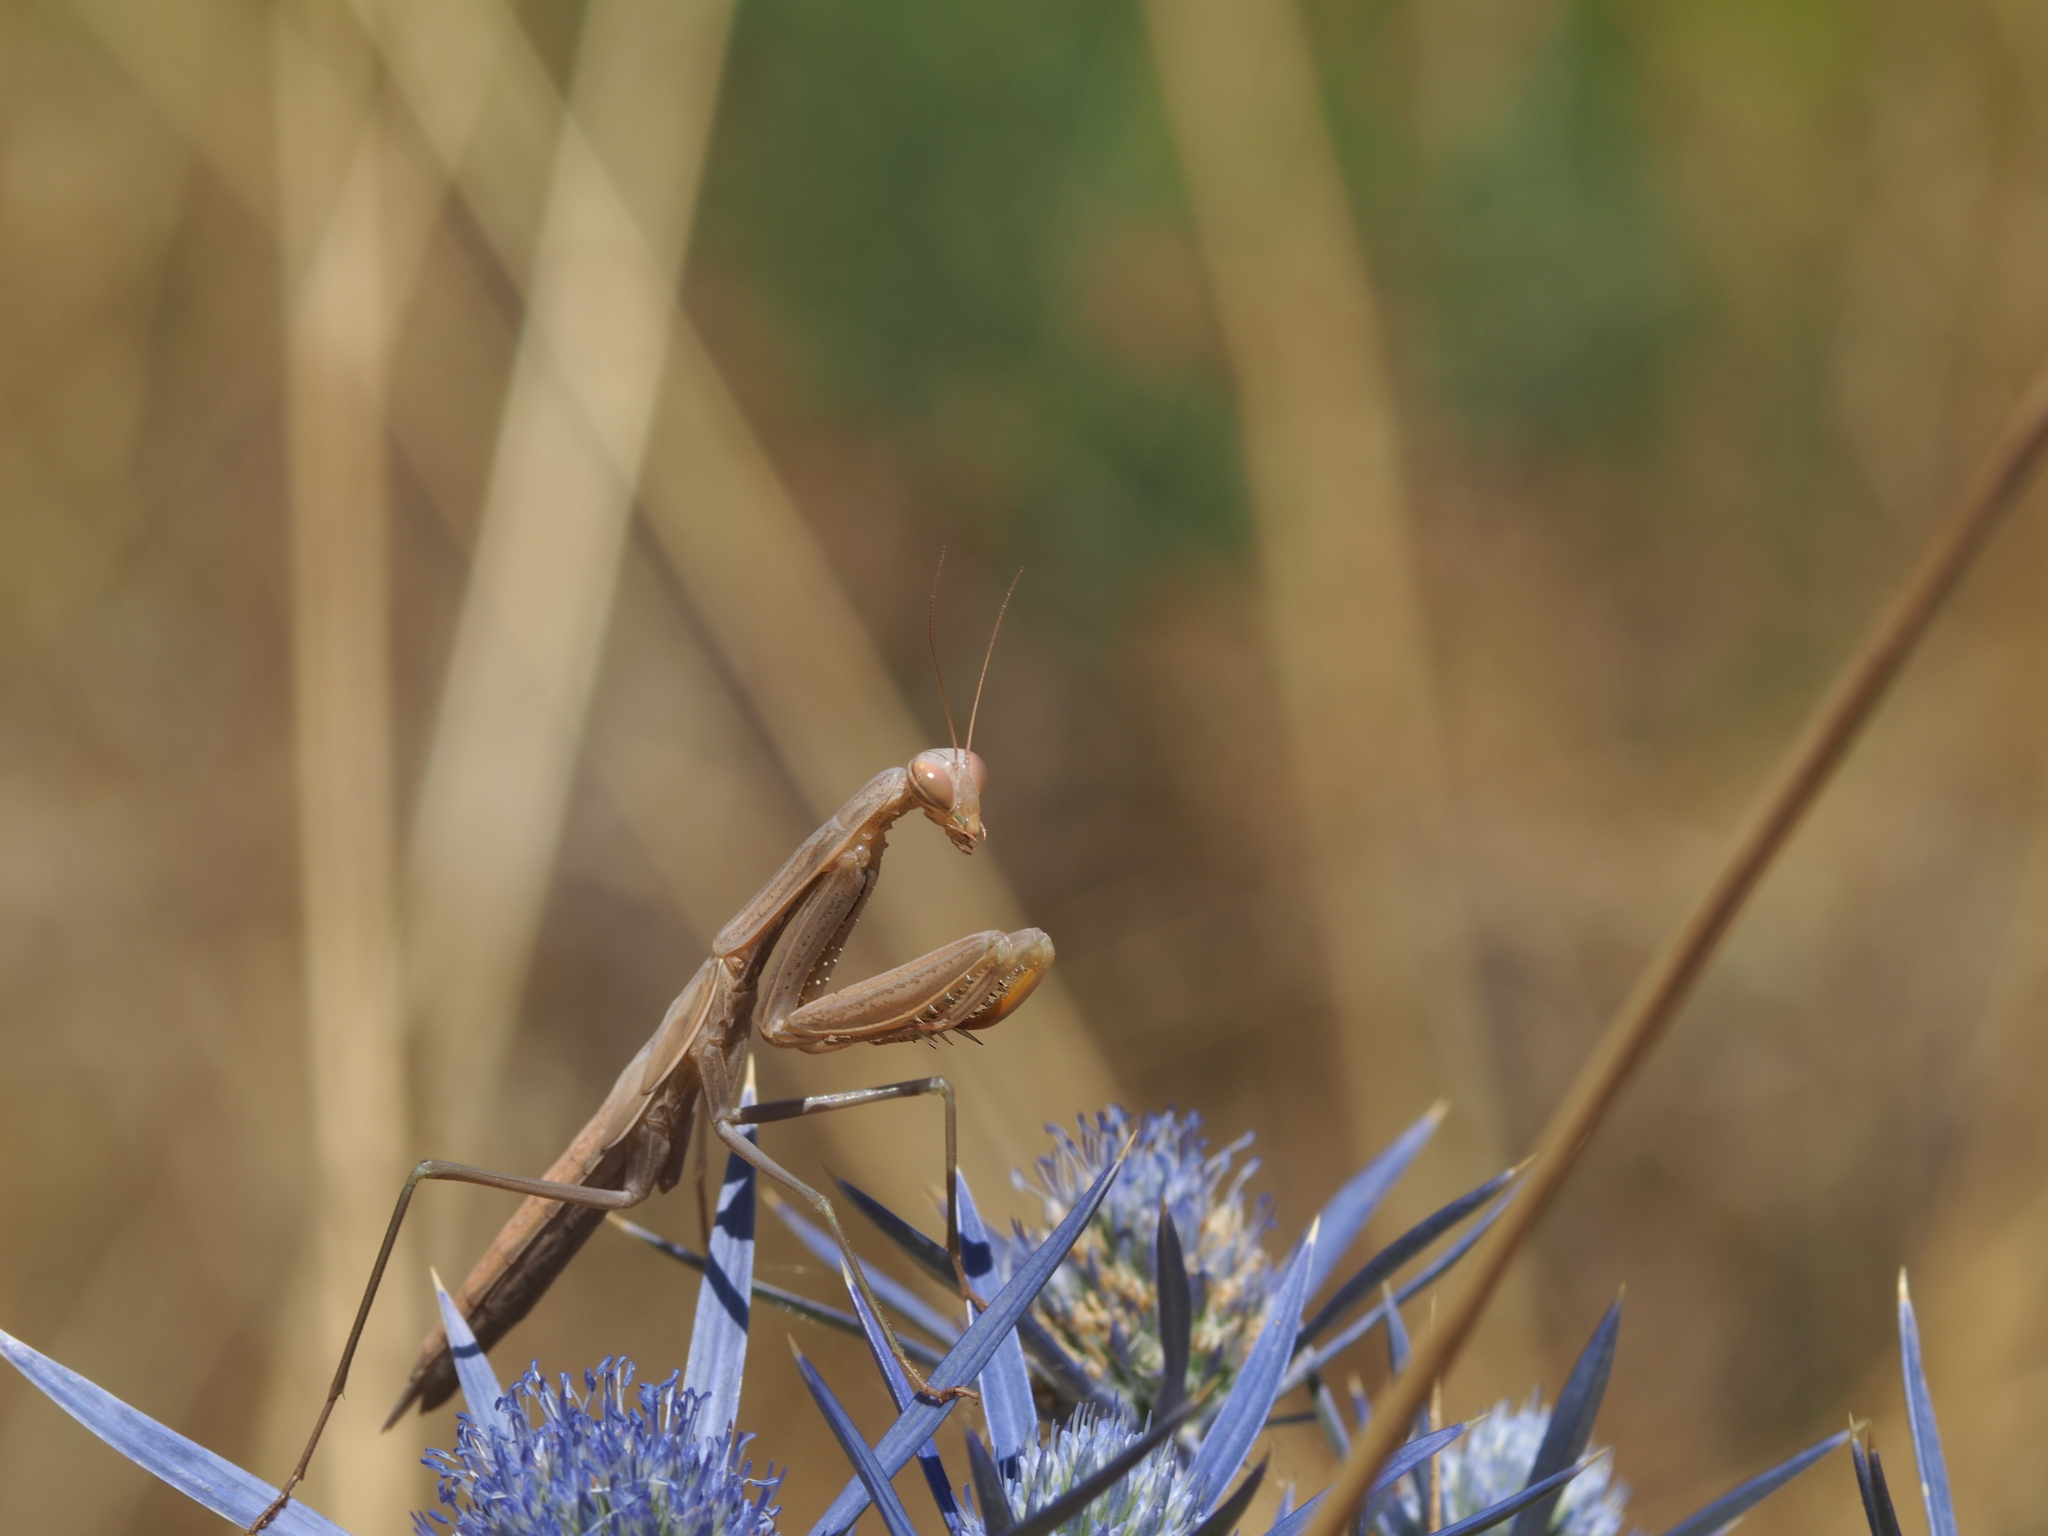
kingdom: Animalia
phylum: Arthropoda
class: Insecta
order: Mantodea
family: Mantidae
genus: Mantis
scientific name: Mantis religiosa
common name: Praying mantis
